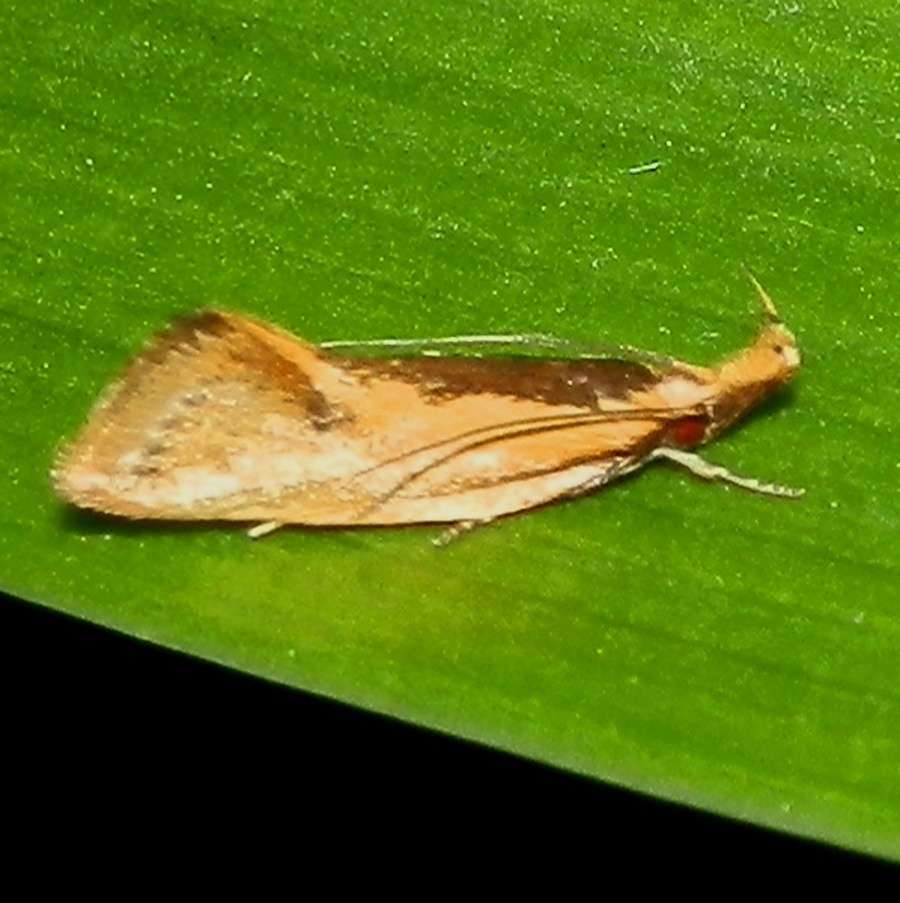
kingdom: Animalia
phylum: Arthropoda
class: Insecta
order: Lepidoptera
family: Oecophoridae
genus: Thema
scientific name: Thema psammoxantha
